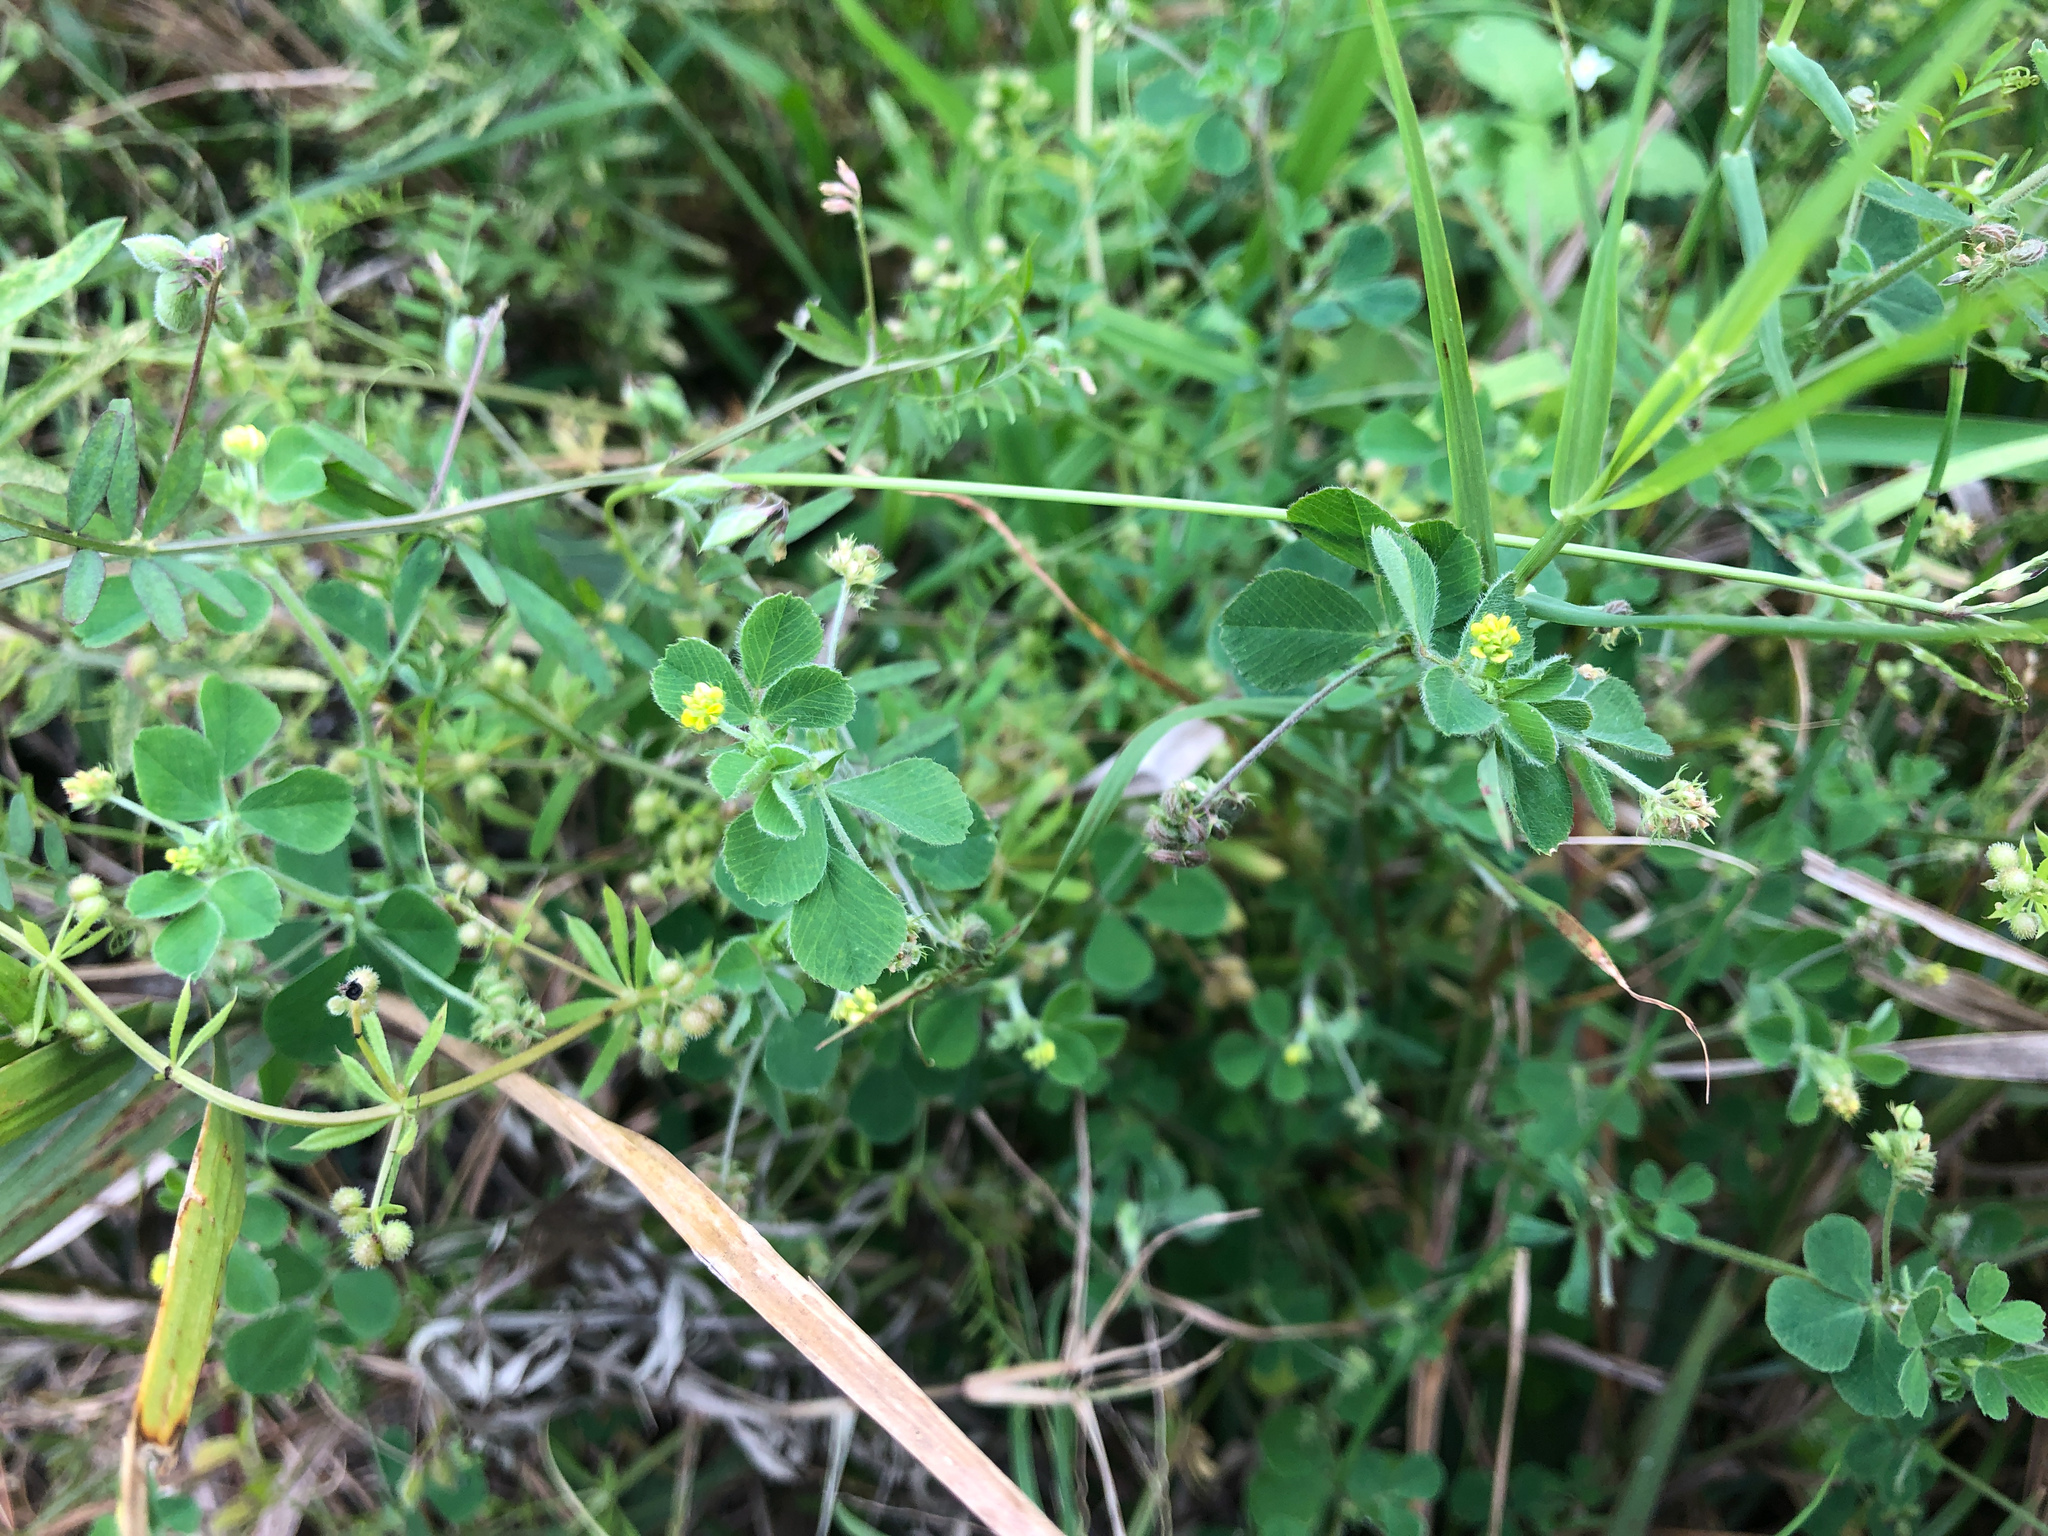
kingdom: Plantae
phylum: Tracheophyta
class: Magnoliopsida
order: Fabales
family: Fabaceae
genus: Medicago
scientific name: Medicago lupulina
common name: Black medick
